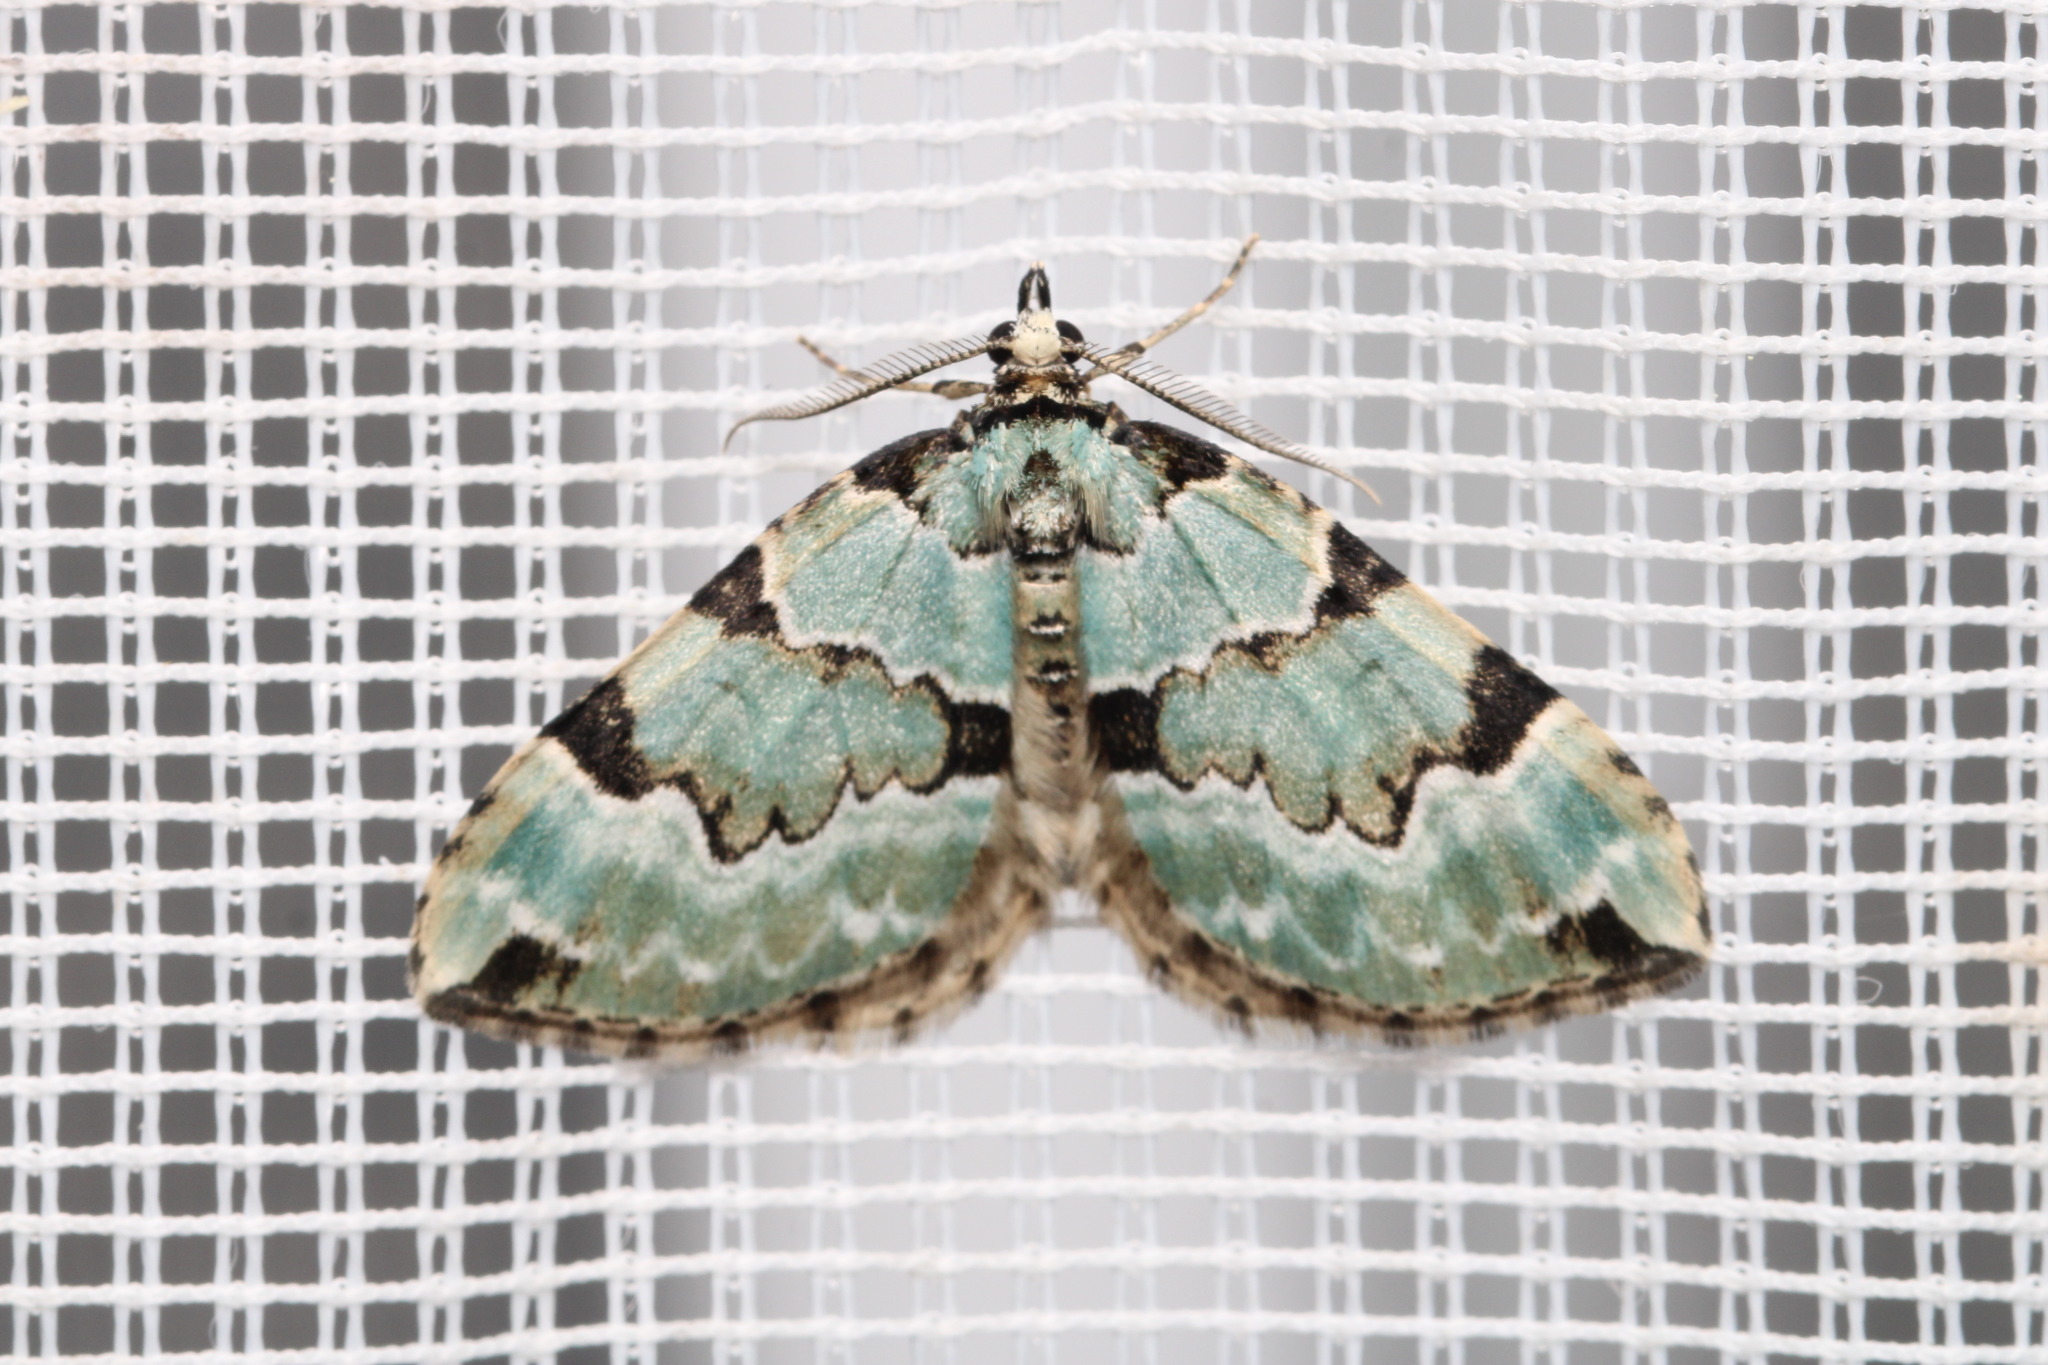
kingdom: Animalia
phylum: Arthropoda
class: Insecta
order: Lepidoptera
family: Geometridae
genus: Colostygia
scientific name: Colostygia pectinataria
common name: Green carpet
